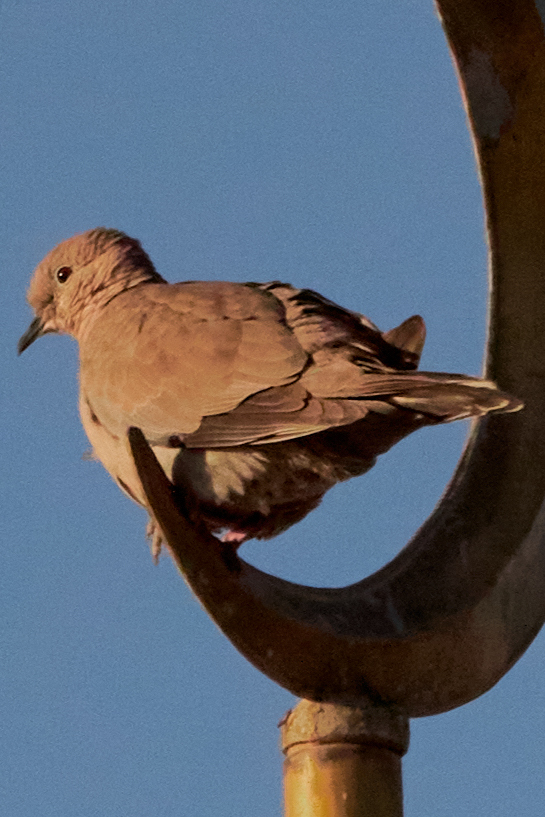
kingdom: Animalia
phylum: Chordata
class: Aves
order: Columbiformes
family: Columbidae
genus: Streptopelia
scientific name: Streptopelia decaocto
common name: Eurasian collared dove
